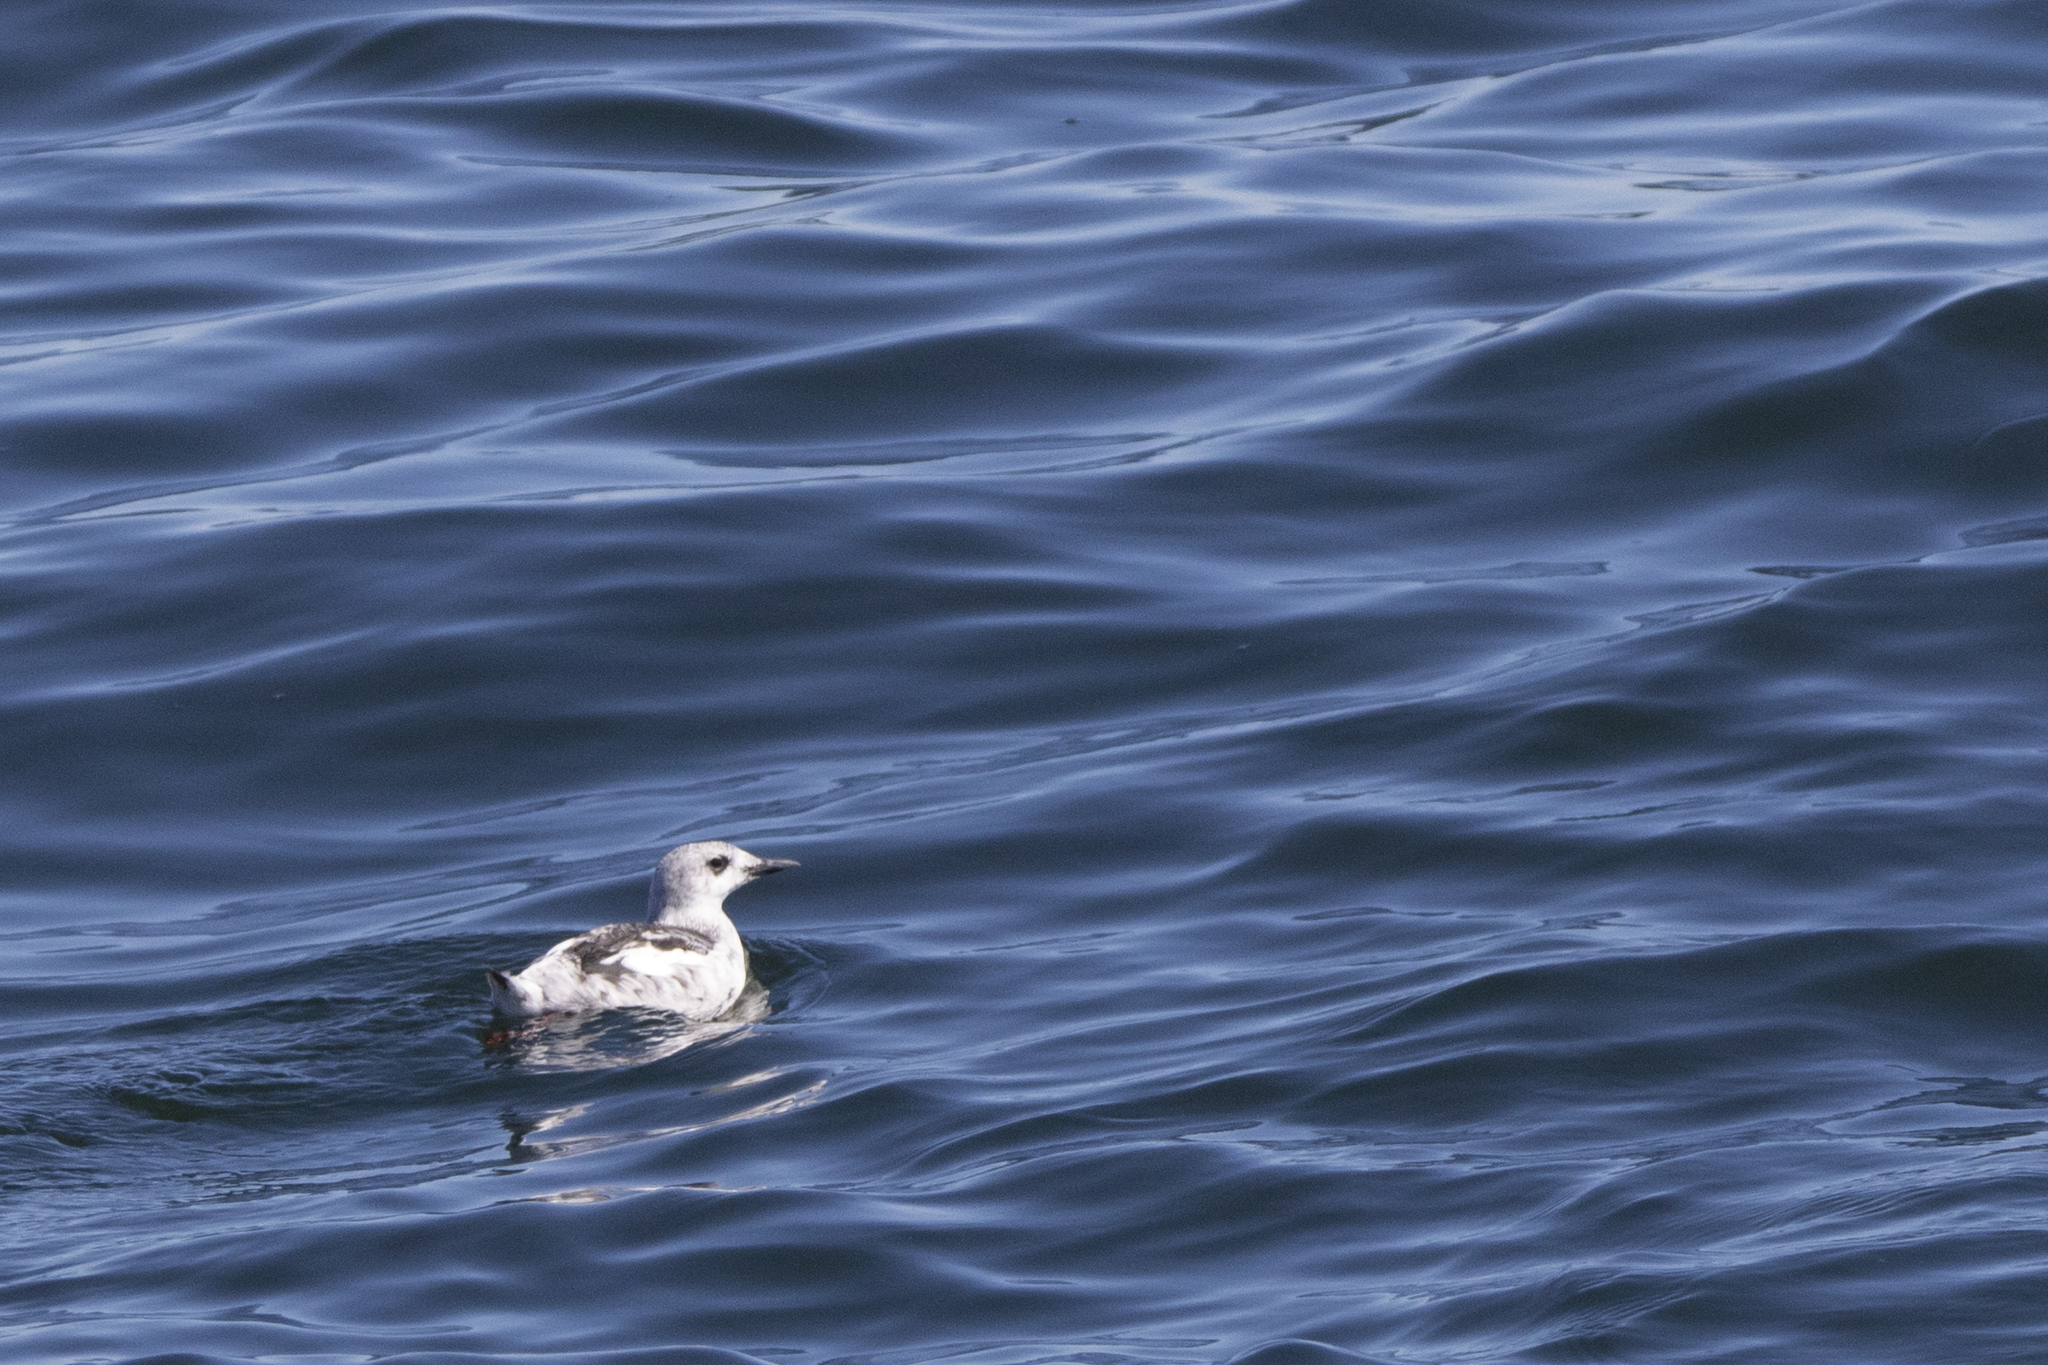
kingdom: Animalia
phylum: Chordata
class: Aves
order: Charadriiformes
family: Alcidae
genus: Cepphus
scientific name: Cepphus grylle
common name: Black guillemot
